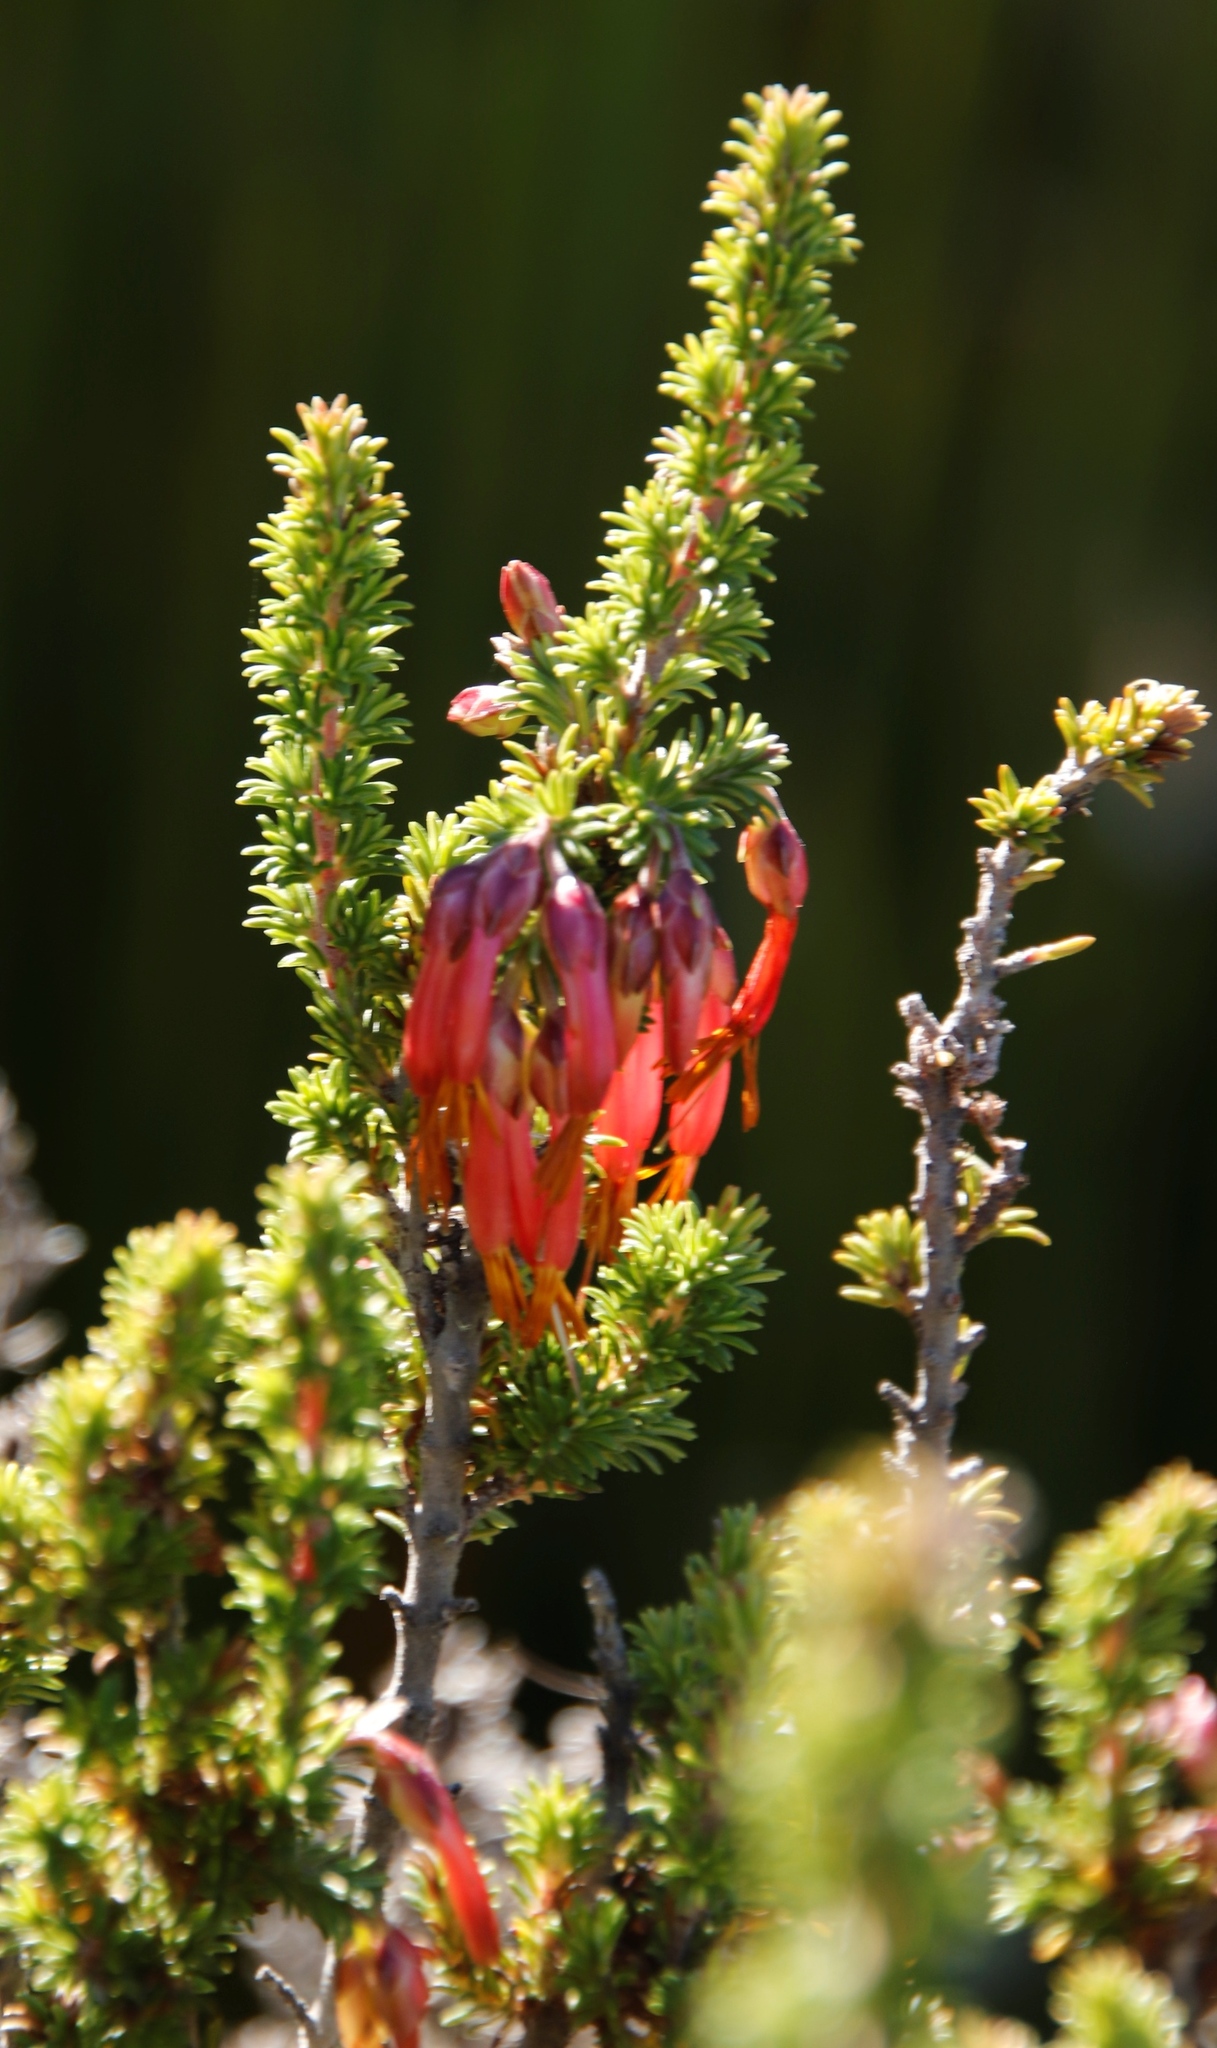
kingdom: Plantae
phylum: Tracheophyta
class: Magnoliopsida
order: Ericales
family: Ericaceae
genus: Erica
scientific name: Erica coccinea
